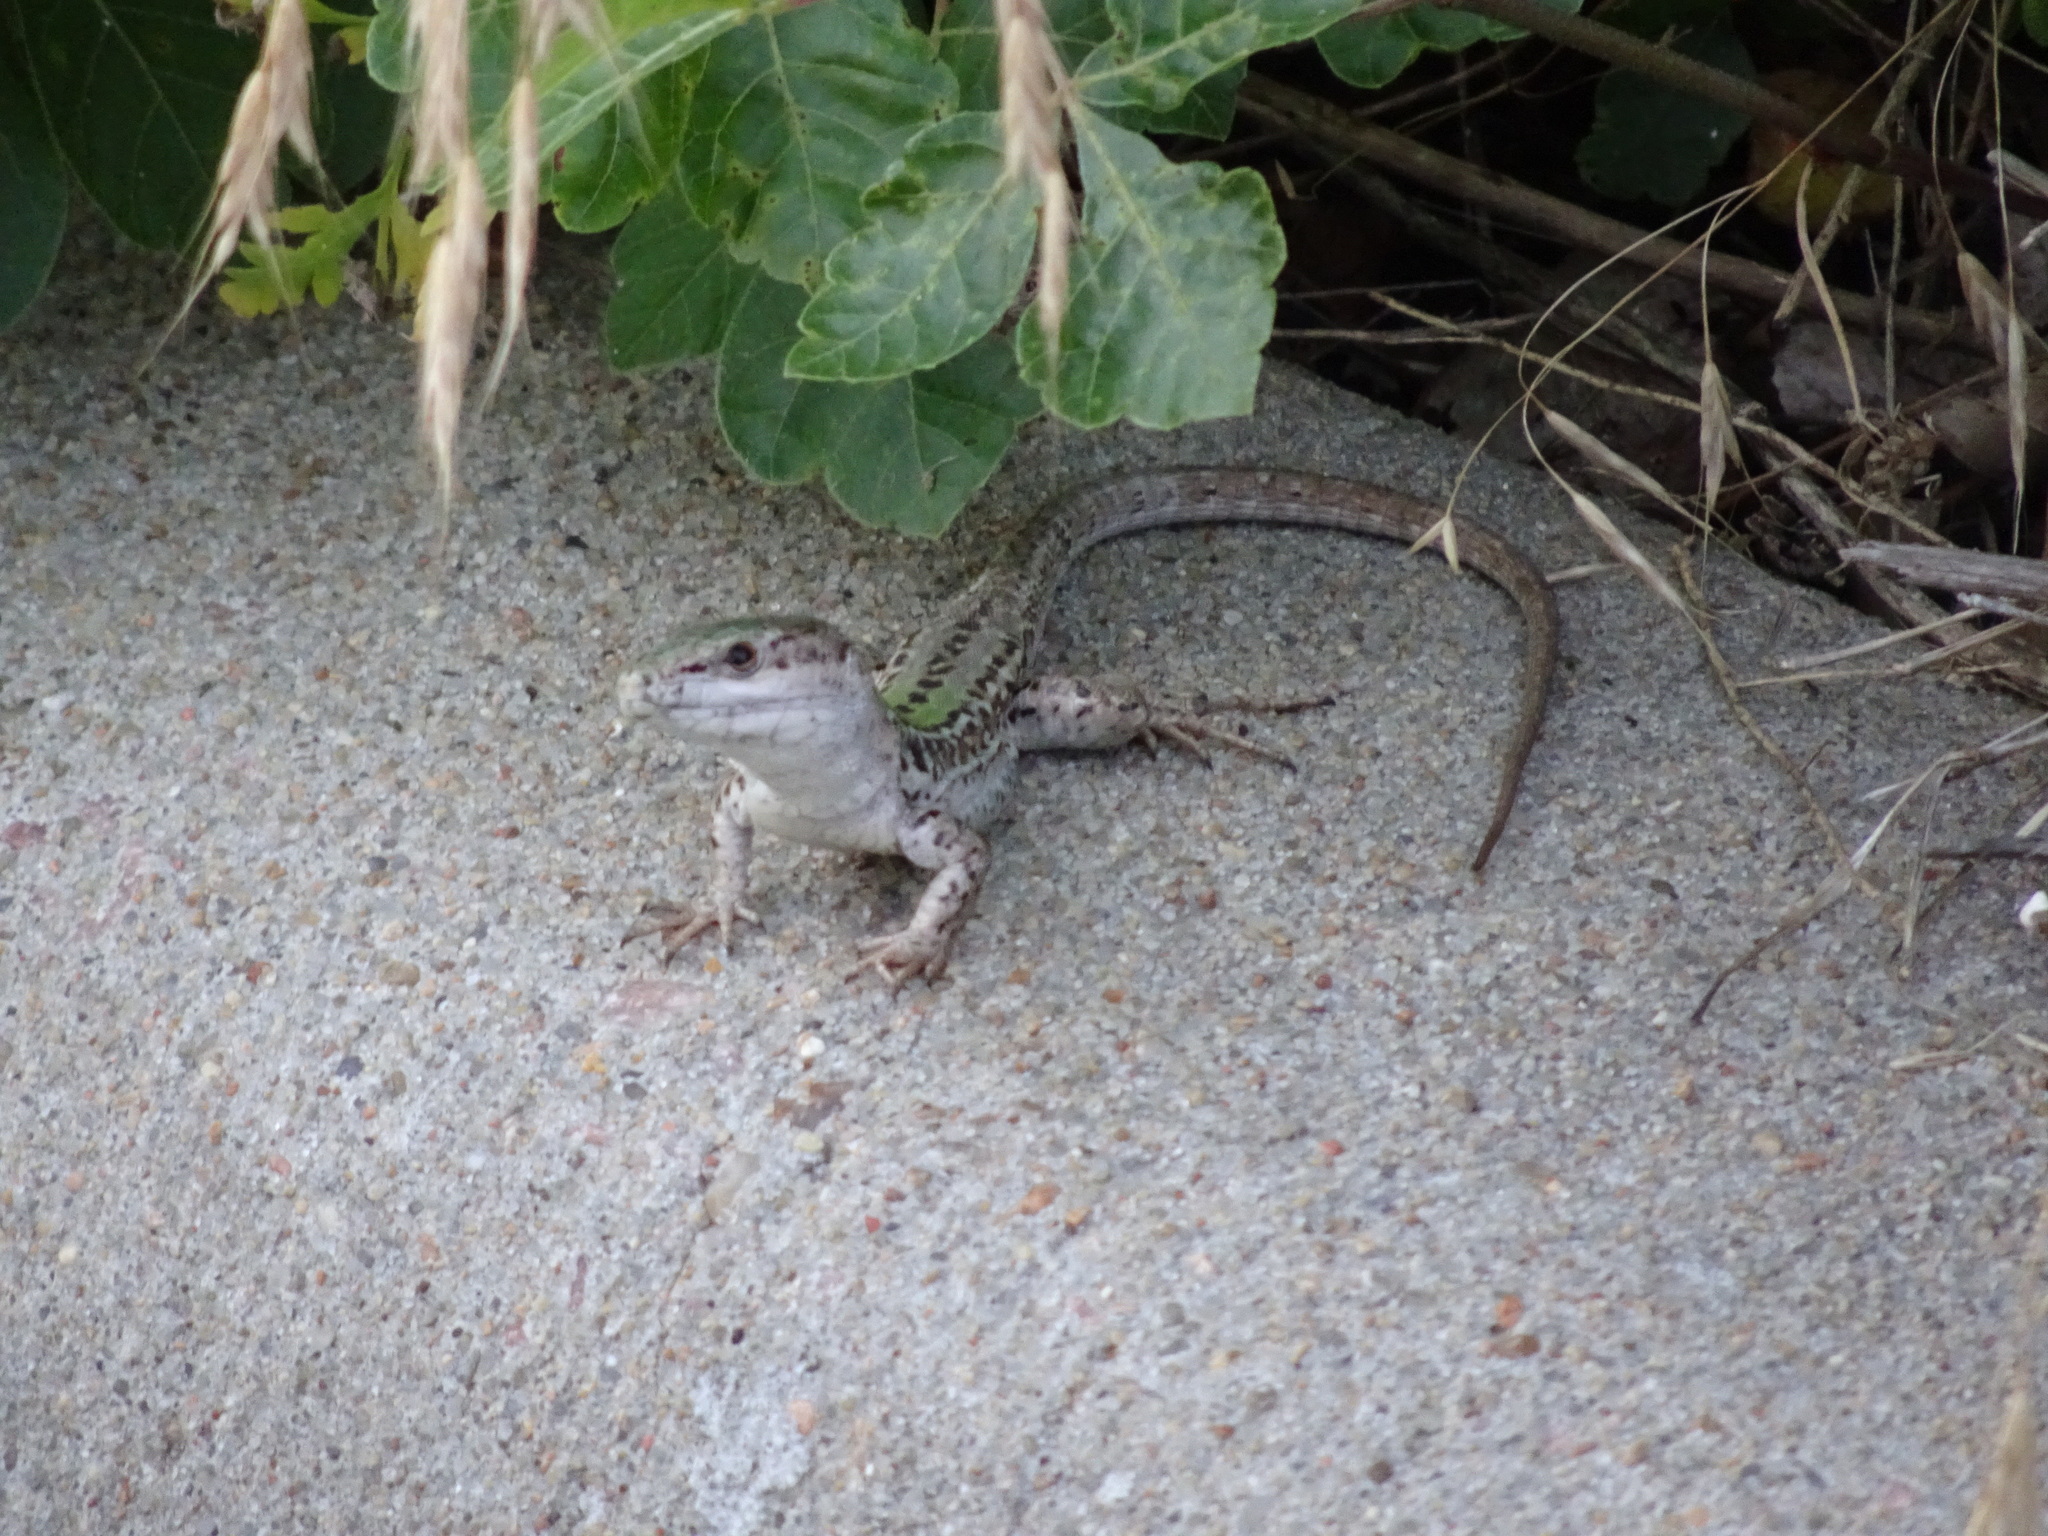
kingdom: Animalia
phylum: Chordata
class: Squamata
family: Lacertidae
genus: Podarcis
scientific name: Podarcis siculus
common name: Italian wall lizard
